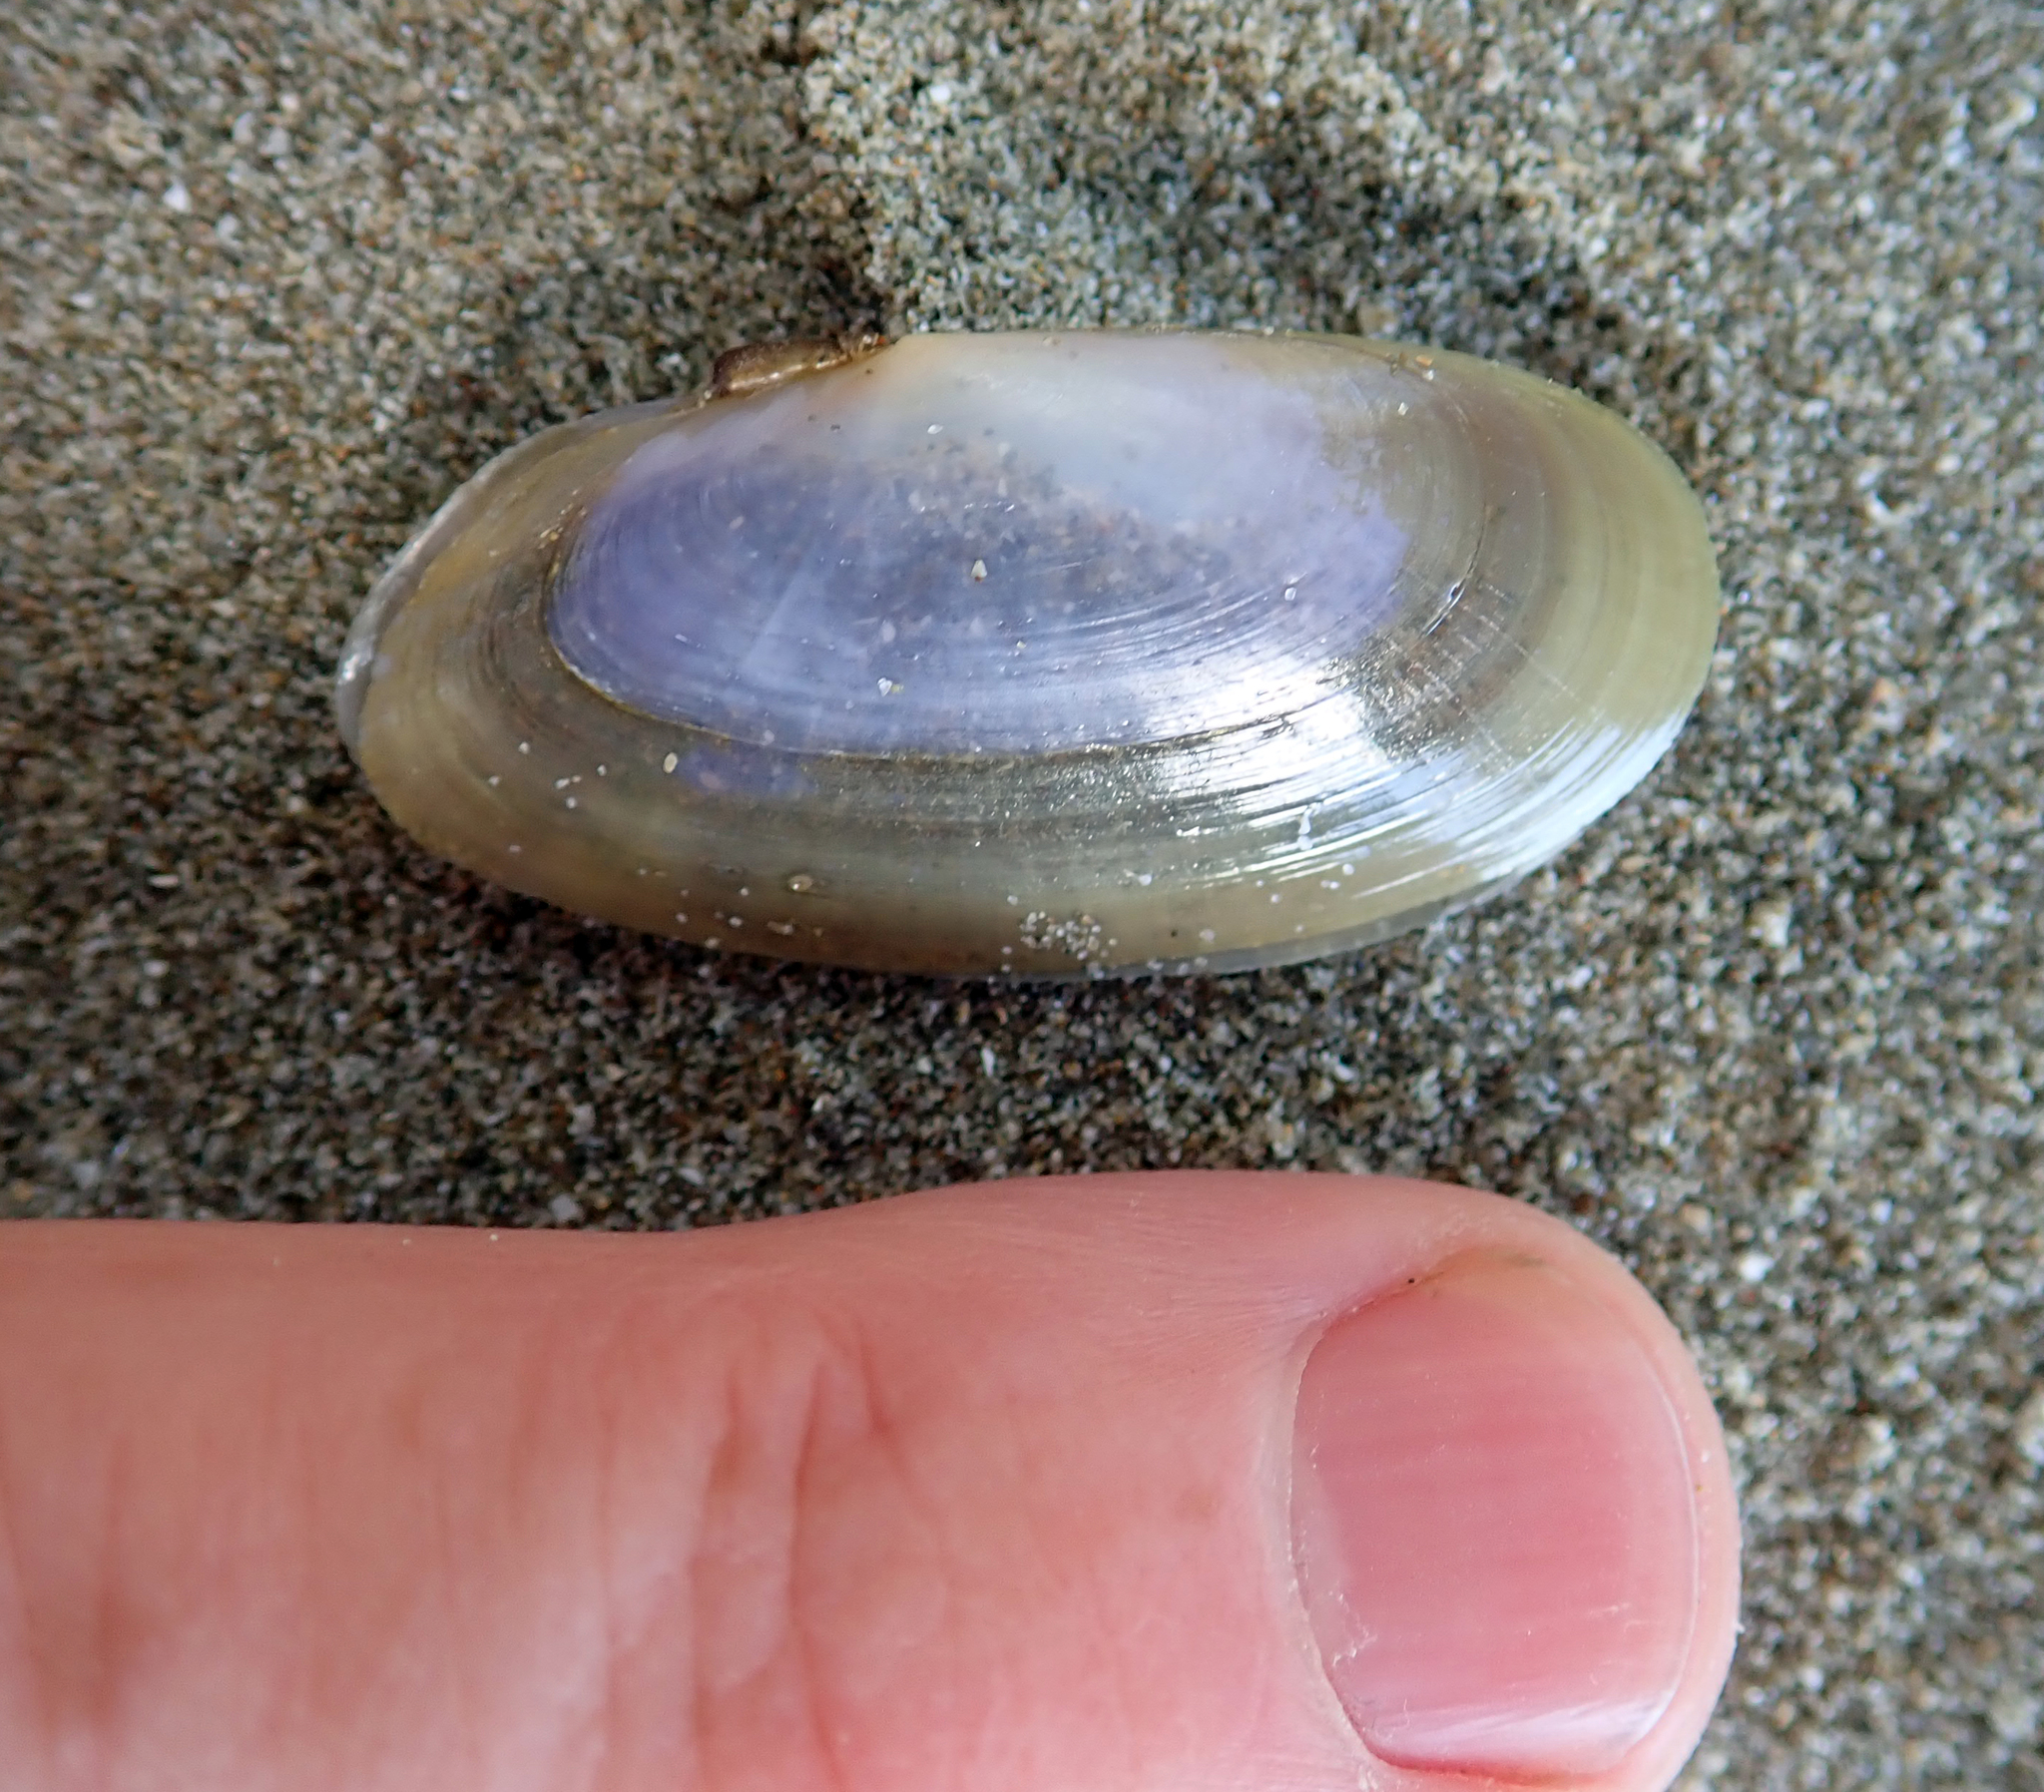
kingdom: Animalia
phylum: Mollusca
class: Bivalvia
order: Cardiida
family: Psammobiidae
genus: Hiatula
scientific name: Hiatula nitida
